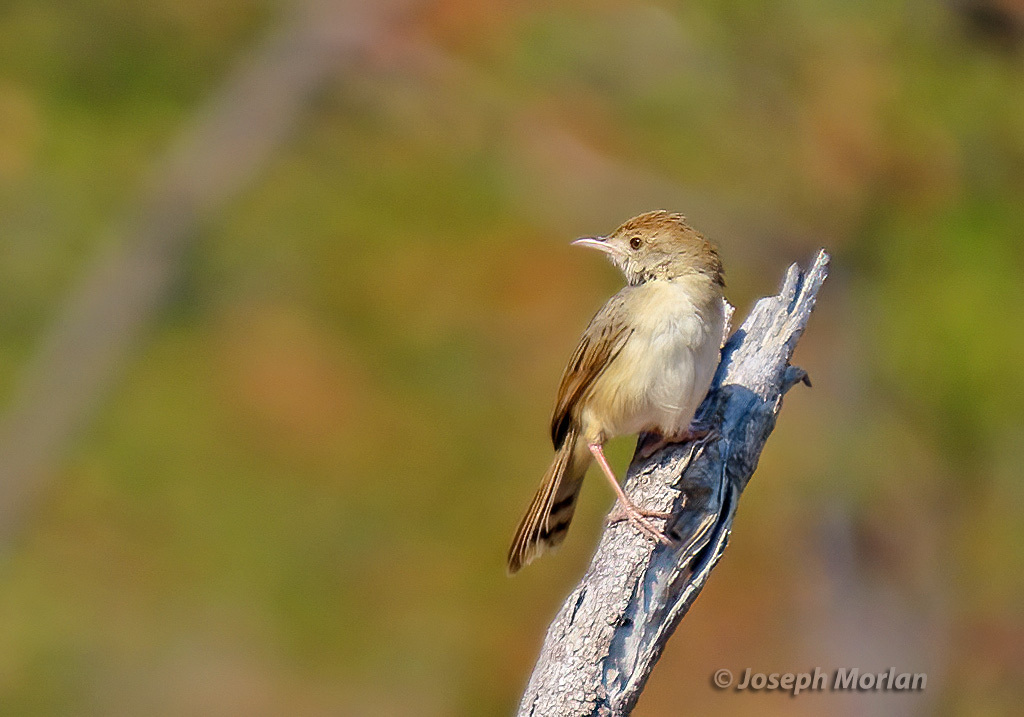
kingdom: Animalia
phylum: Chordata
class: Aves
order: Passeriformes
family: Cisticolidae
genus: Cisticola
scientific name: Cisticola chiniana
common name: Rattling cisticola
